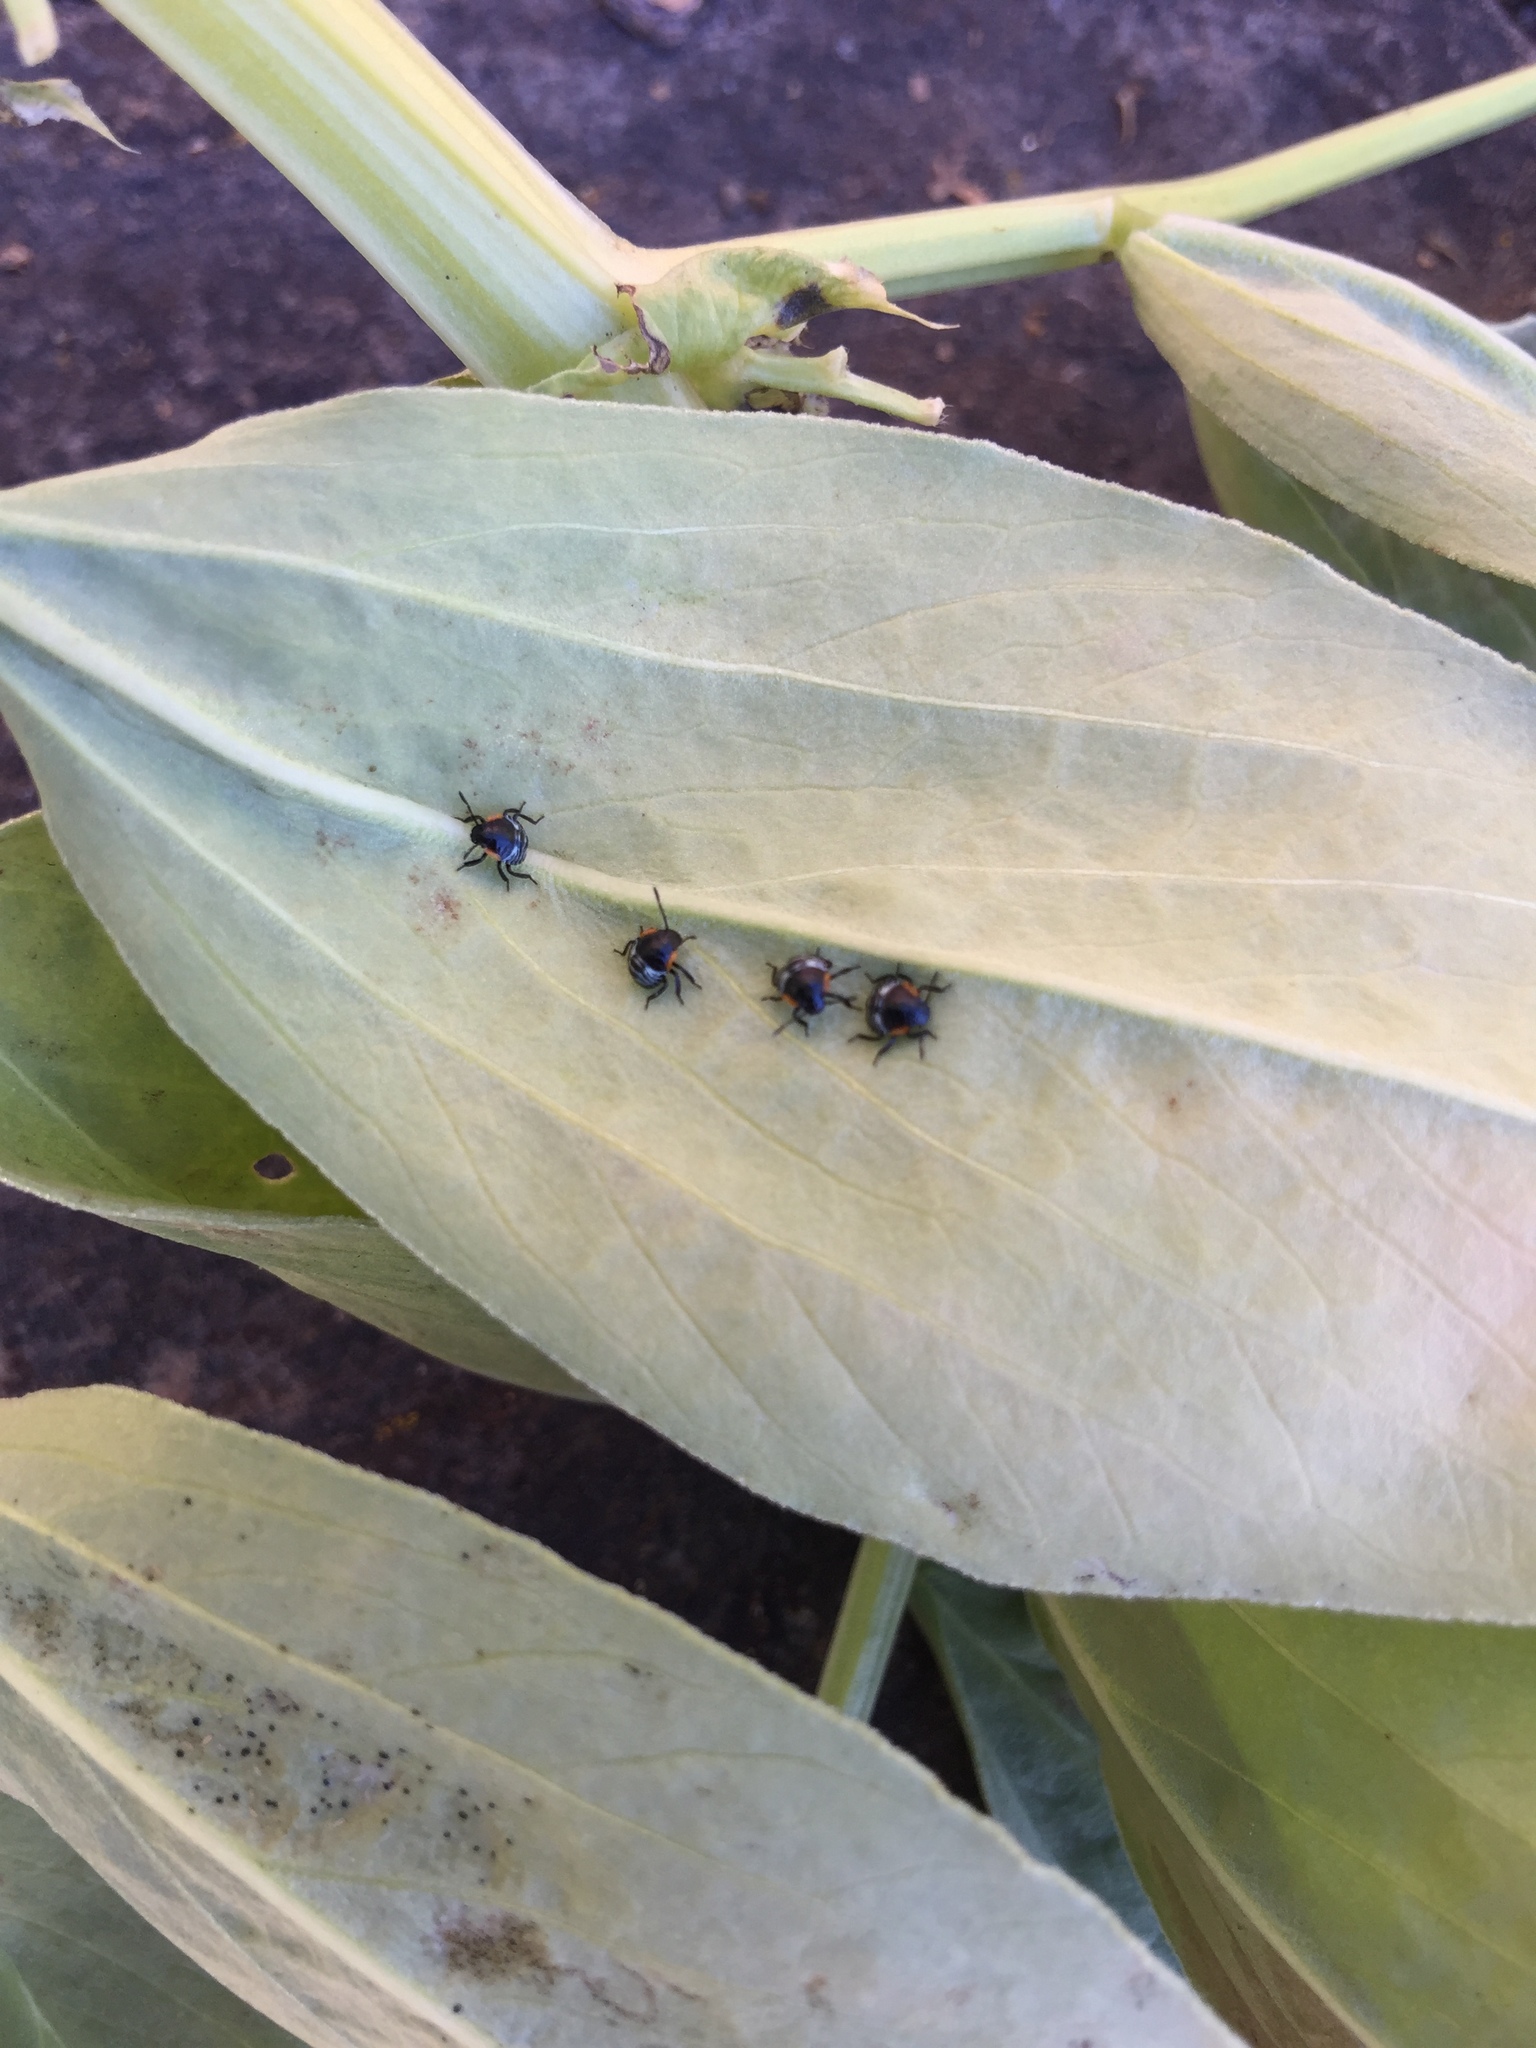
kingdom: Animalia
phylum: Arthropoda
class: Insecta
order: Hemiptera
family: Pentatomidae
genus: Chinavia
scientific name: Chinavia hilaris
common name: Green stink bug
